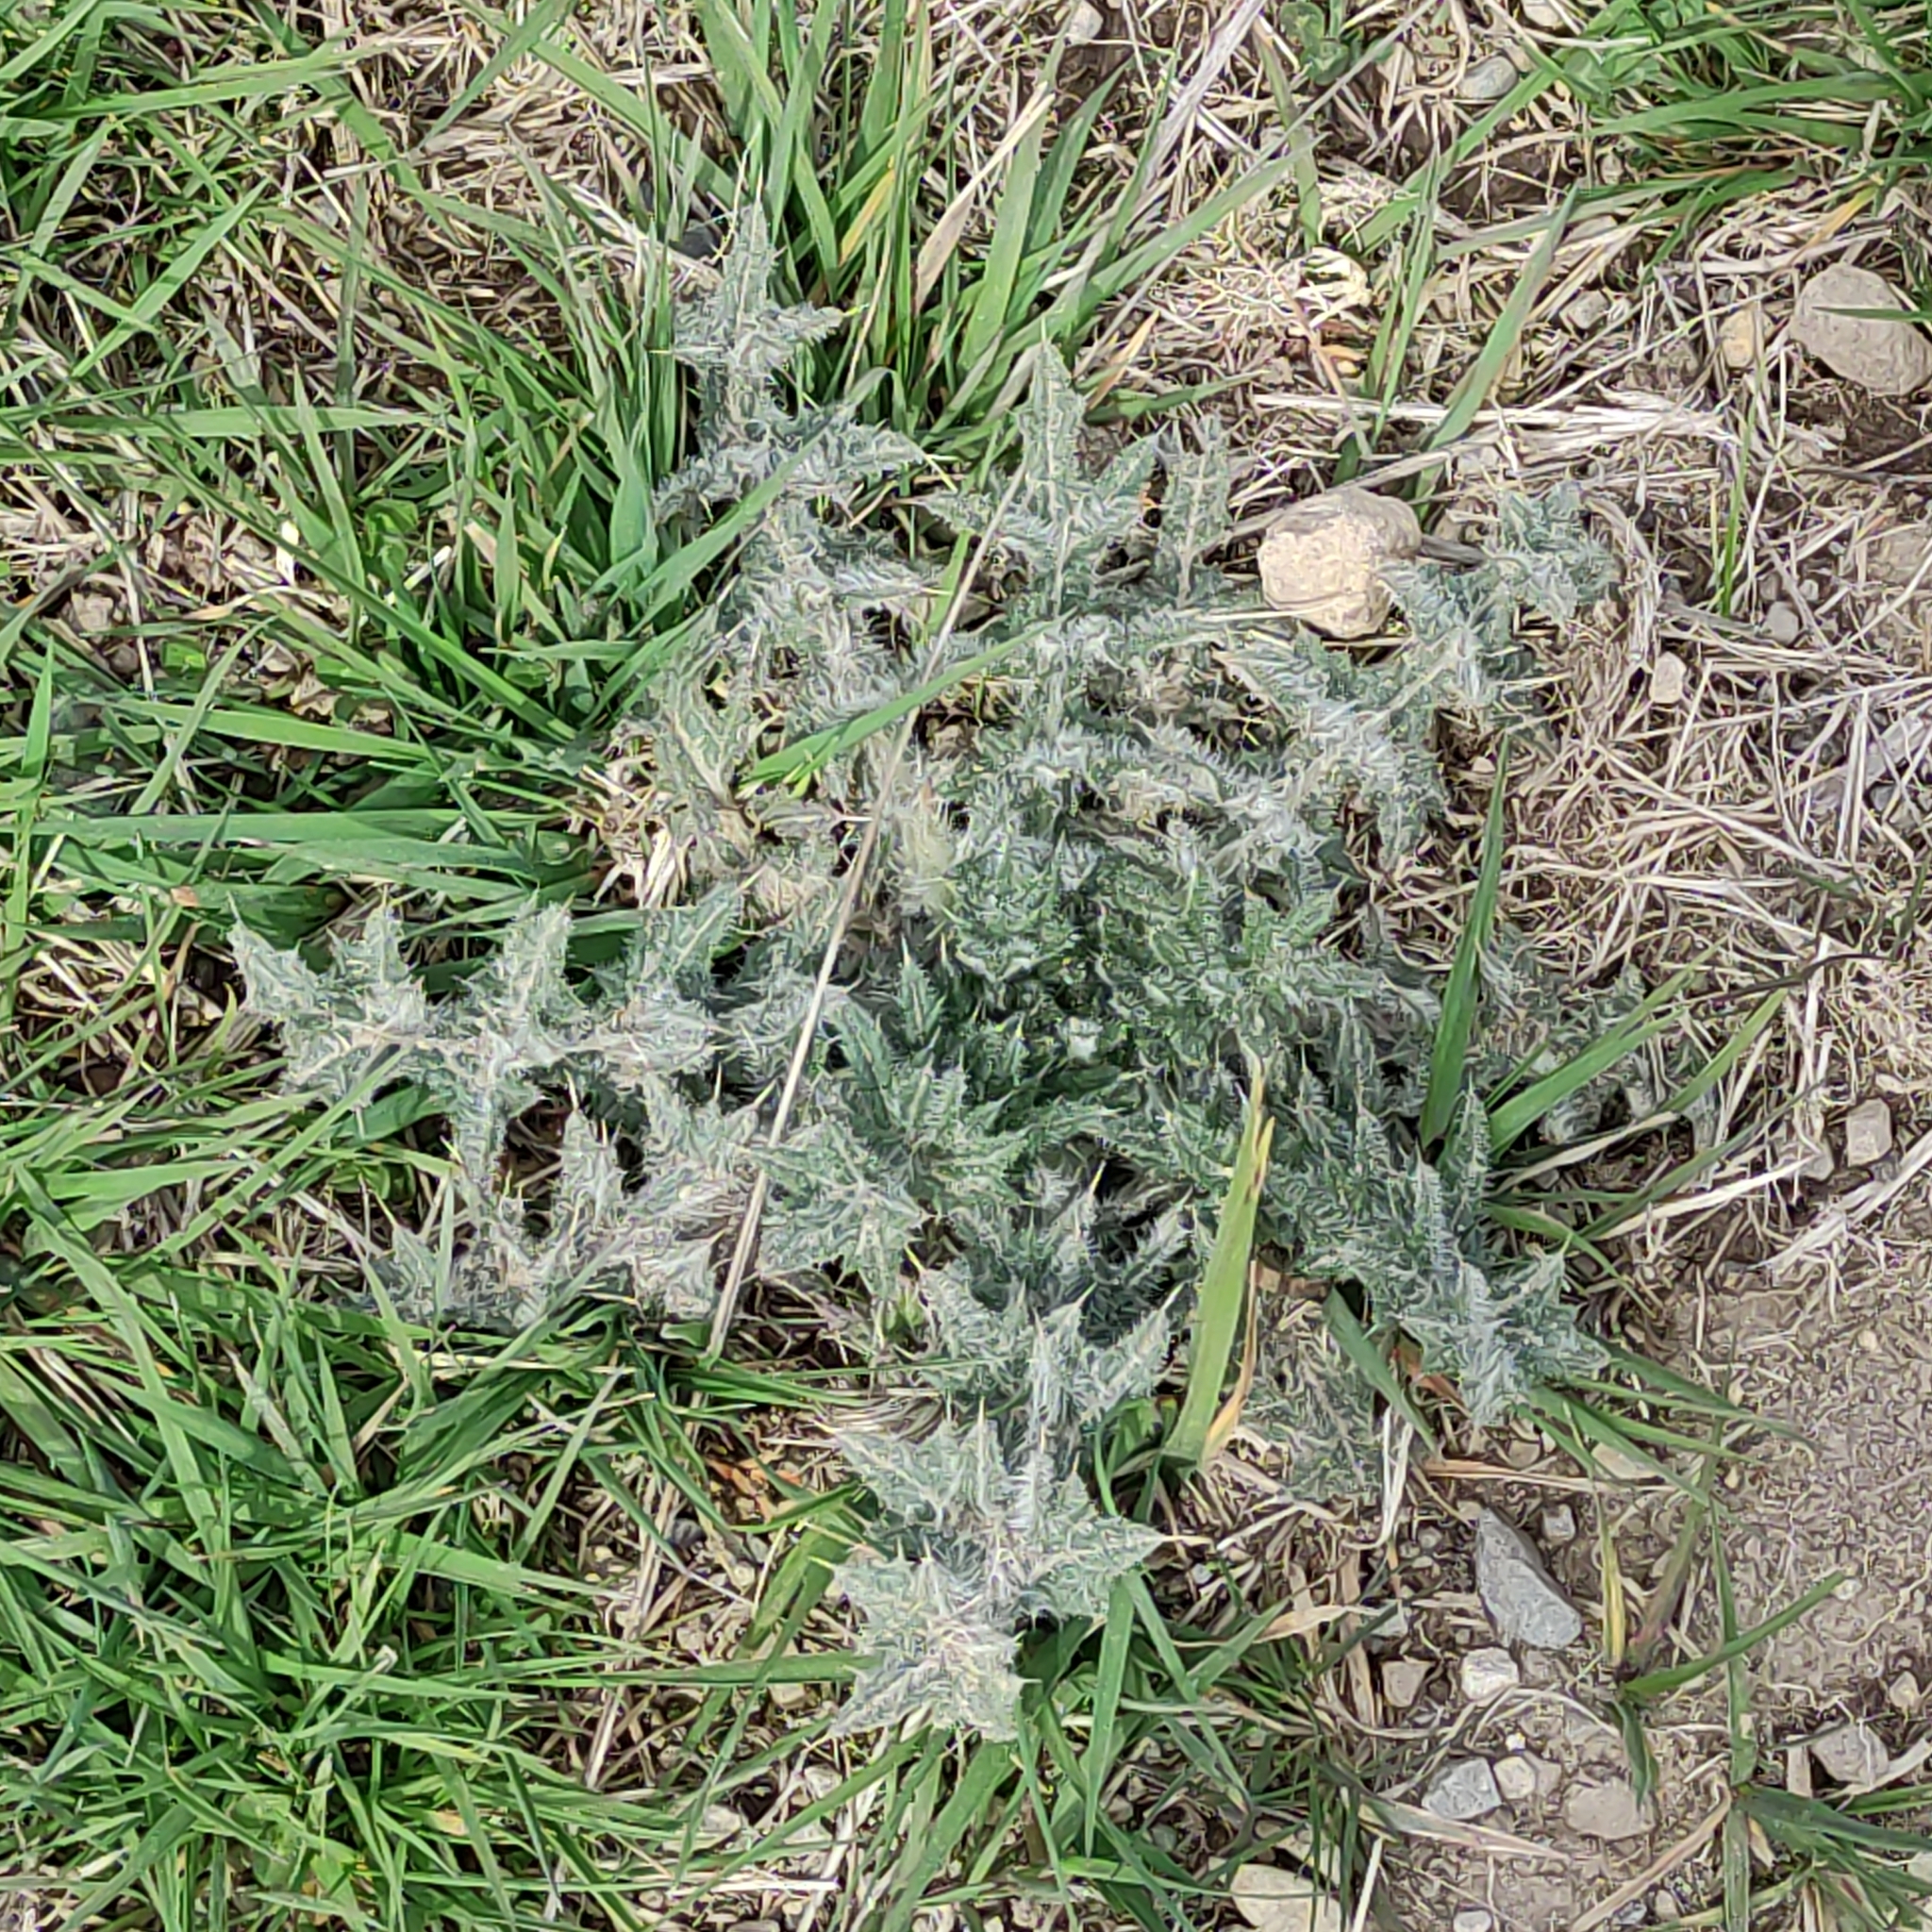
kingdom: Plantae
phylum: Tracheophyta
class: Magnoliopsida
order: Asterales
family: Asteraceae
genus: Cirsium
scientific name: Cirsium vulgare
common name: Bull thistle
